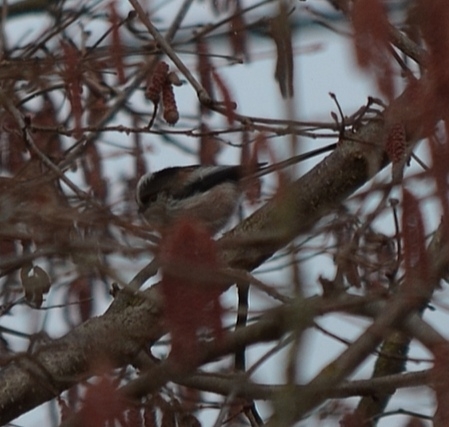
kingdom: Animalia
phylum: Chordata
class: Aves
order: Passeriformes
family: Aegithalidae
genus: Aegithalos
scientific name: Aegithalos caudatus
